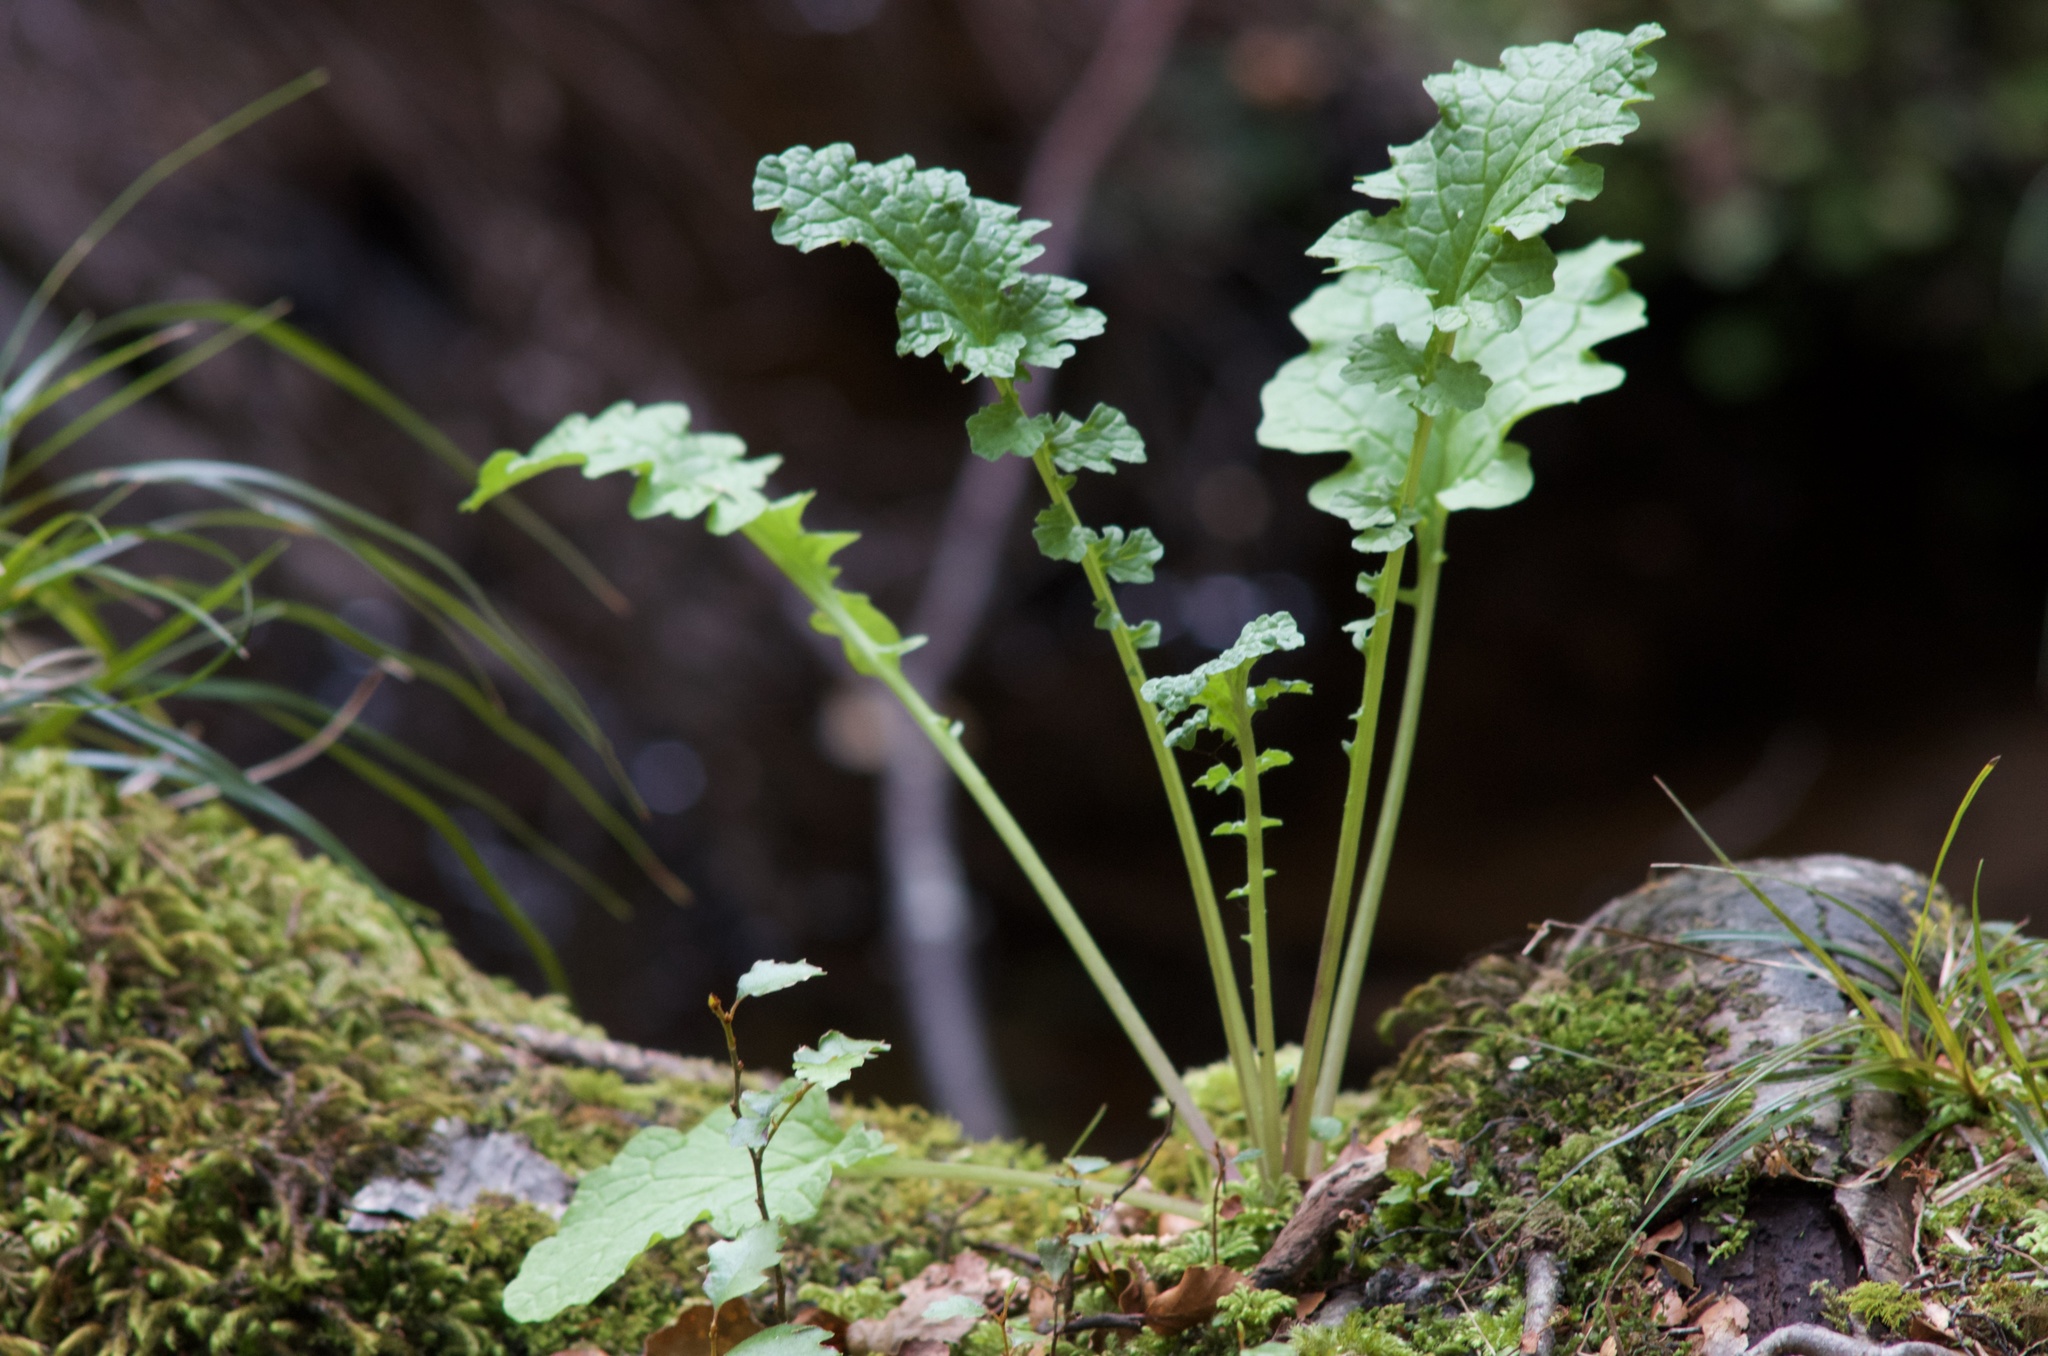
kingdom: Plantae
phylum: Tracheophyta
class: Magnoliopsida
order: Asterales
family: Asteraceae
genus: Jacobaea
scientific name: Jacobaea vulgaris
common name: Stinking willie
